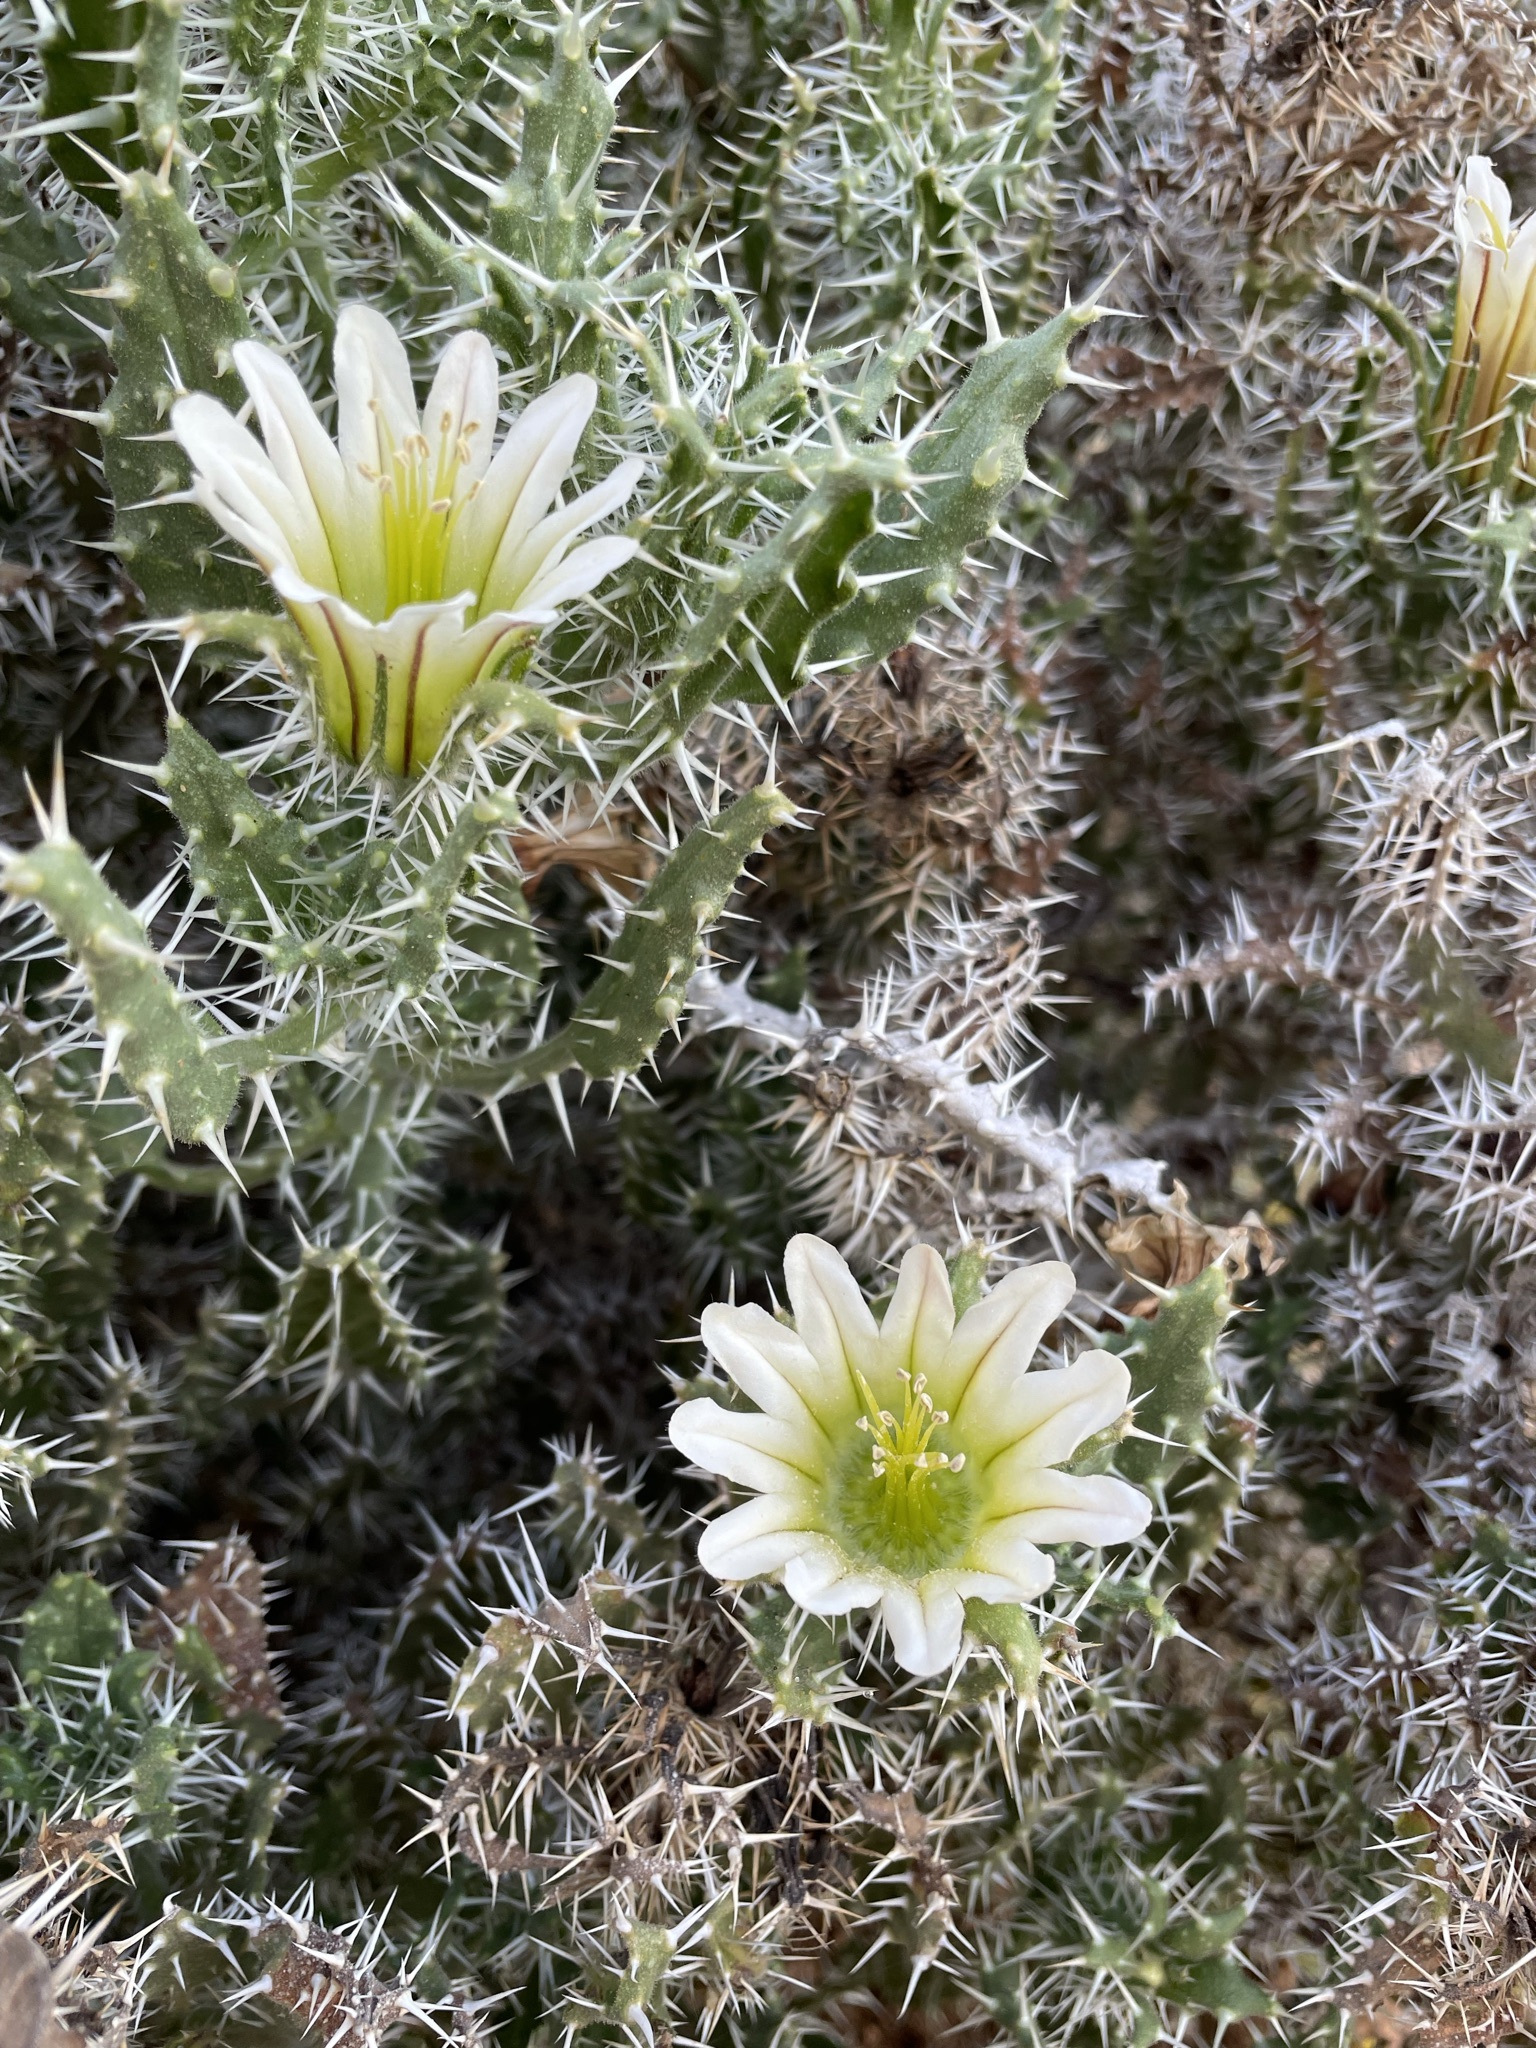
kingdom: Plantae
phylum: Tracheophyta
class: Magnoliopsida
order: Boraginales
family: Boraginaceae
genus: Codon
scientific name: Codon royenii
